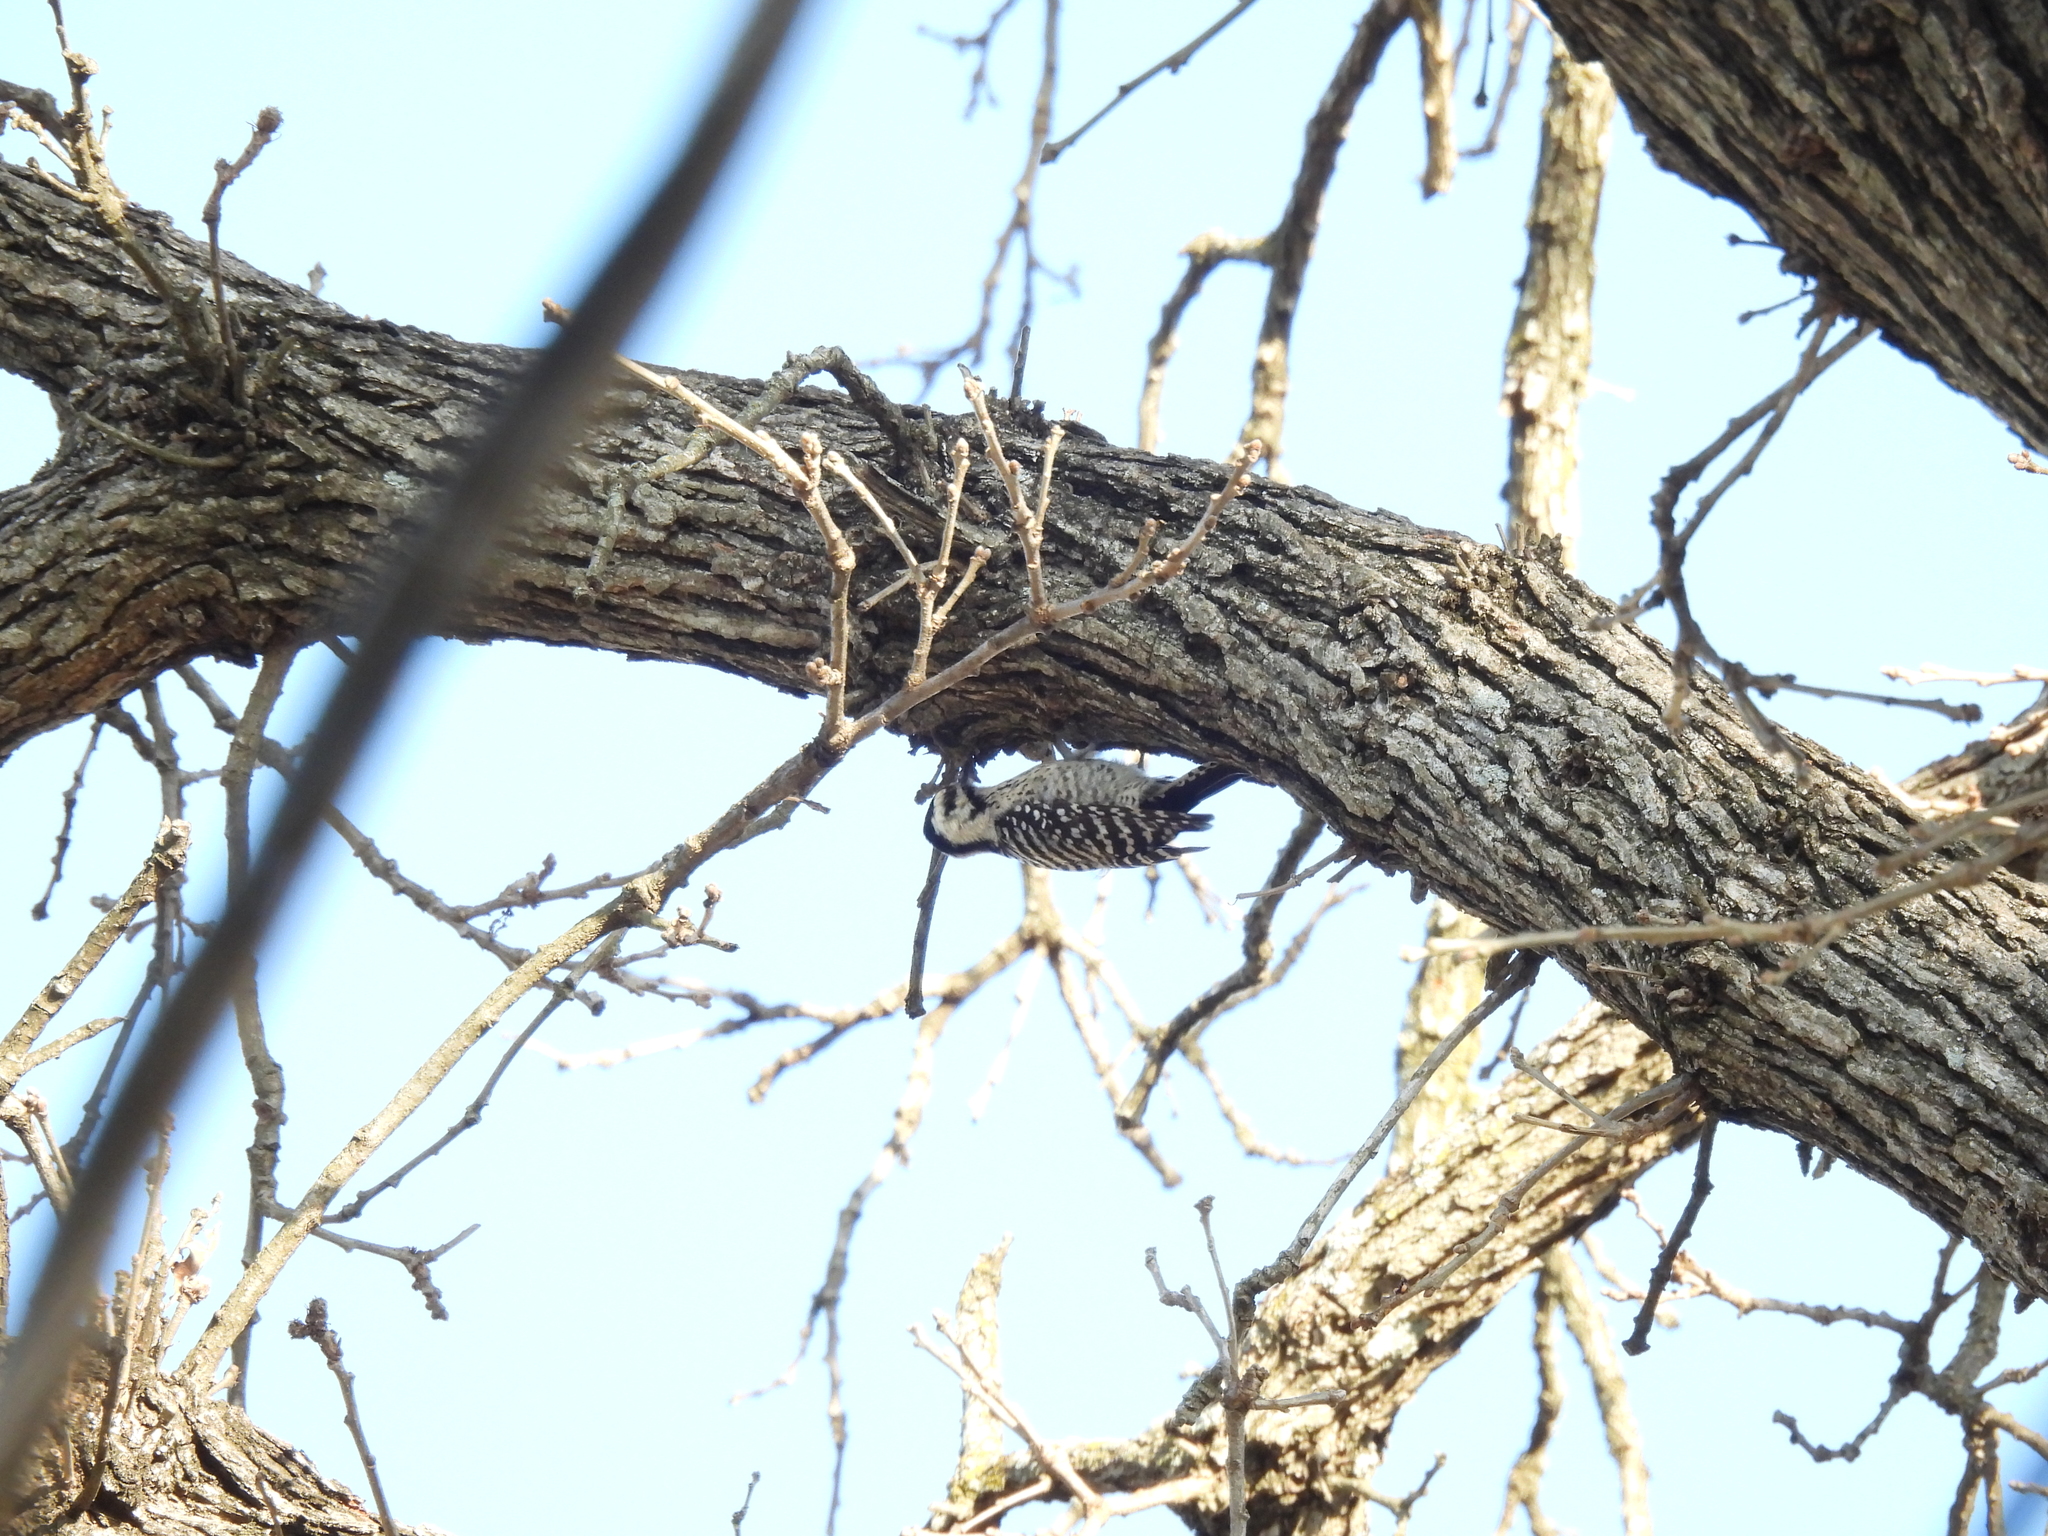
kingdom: Animalia
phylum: Chordata
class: Aves
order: Piciformes
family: Picidae
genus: Dryobates
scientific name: Dryobates scalaris
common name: Ladder-backed woodpecker
